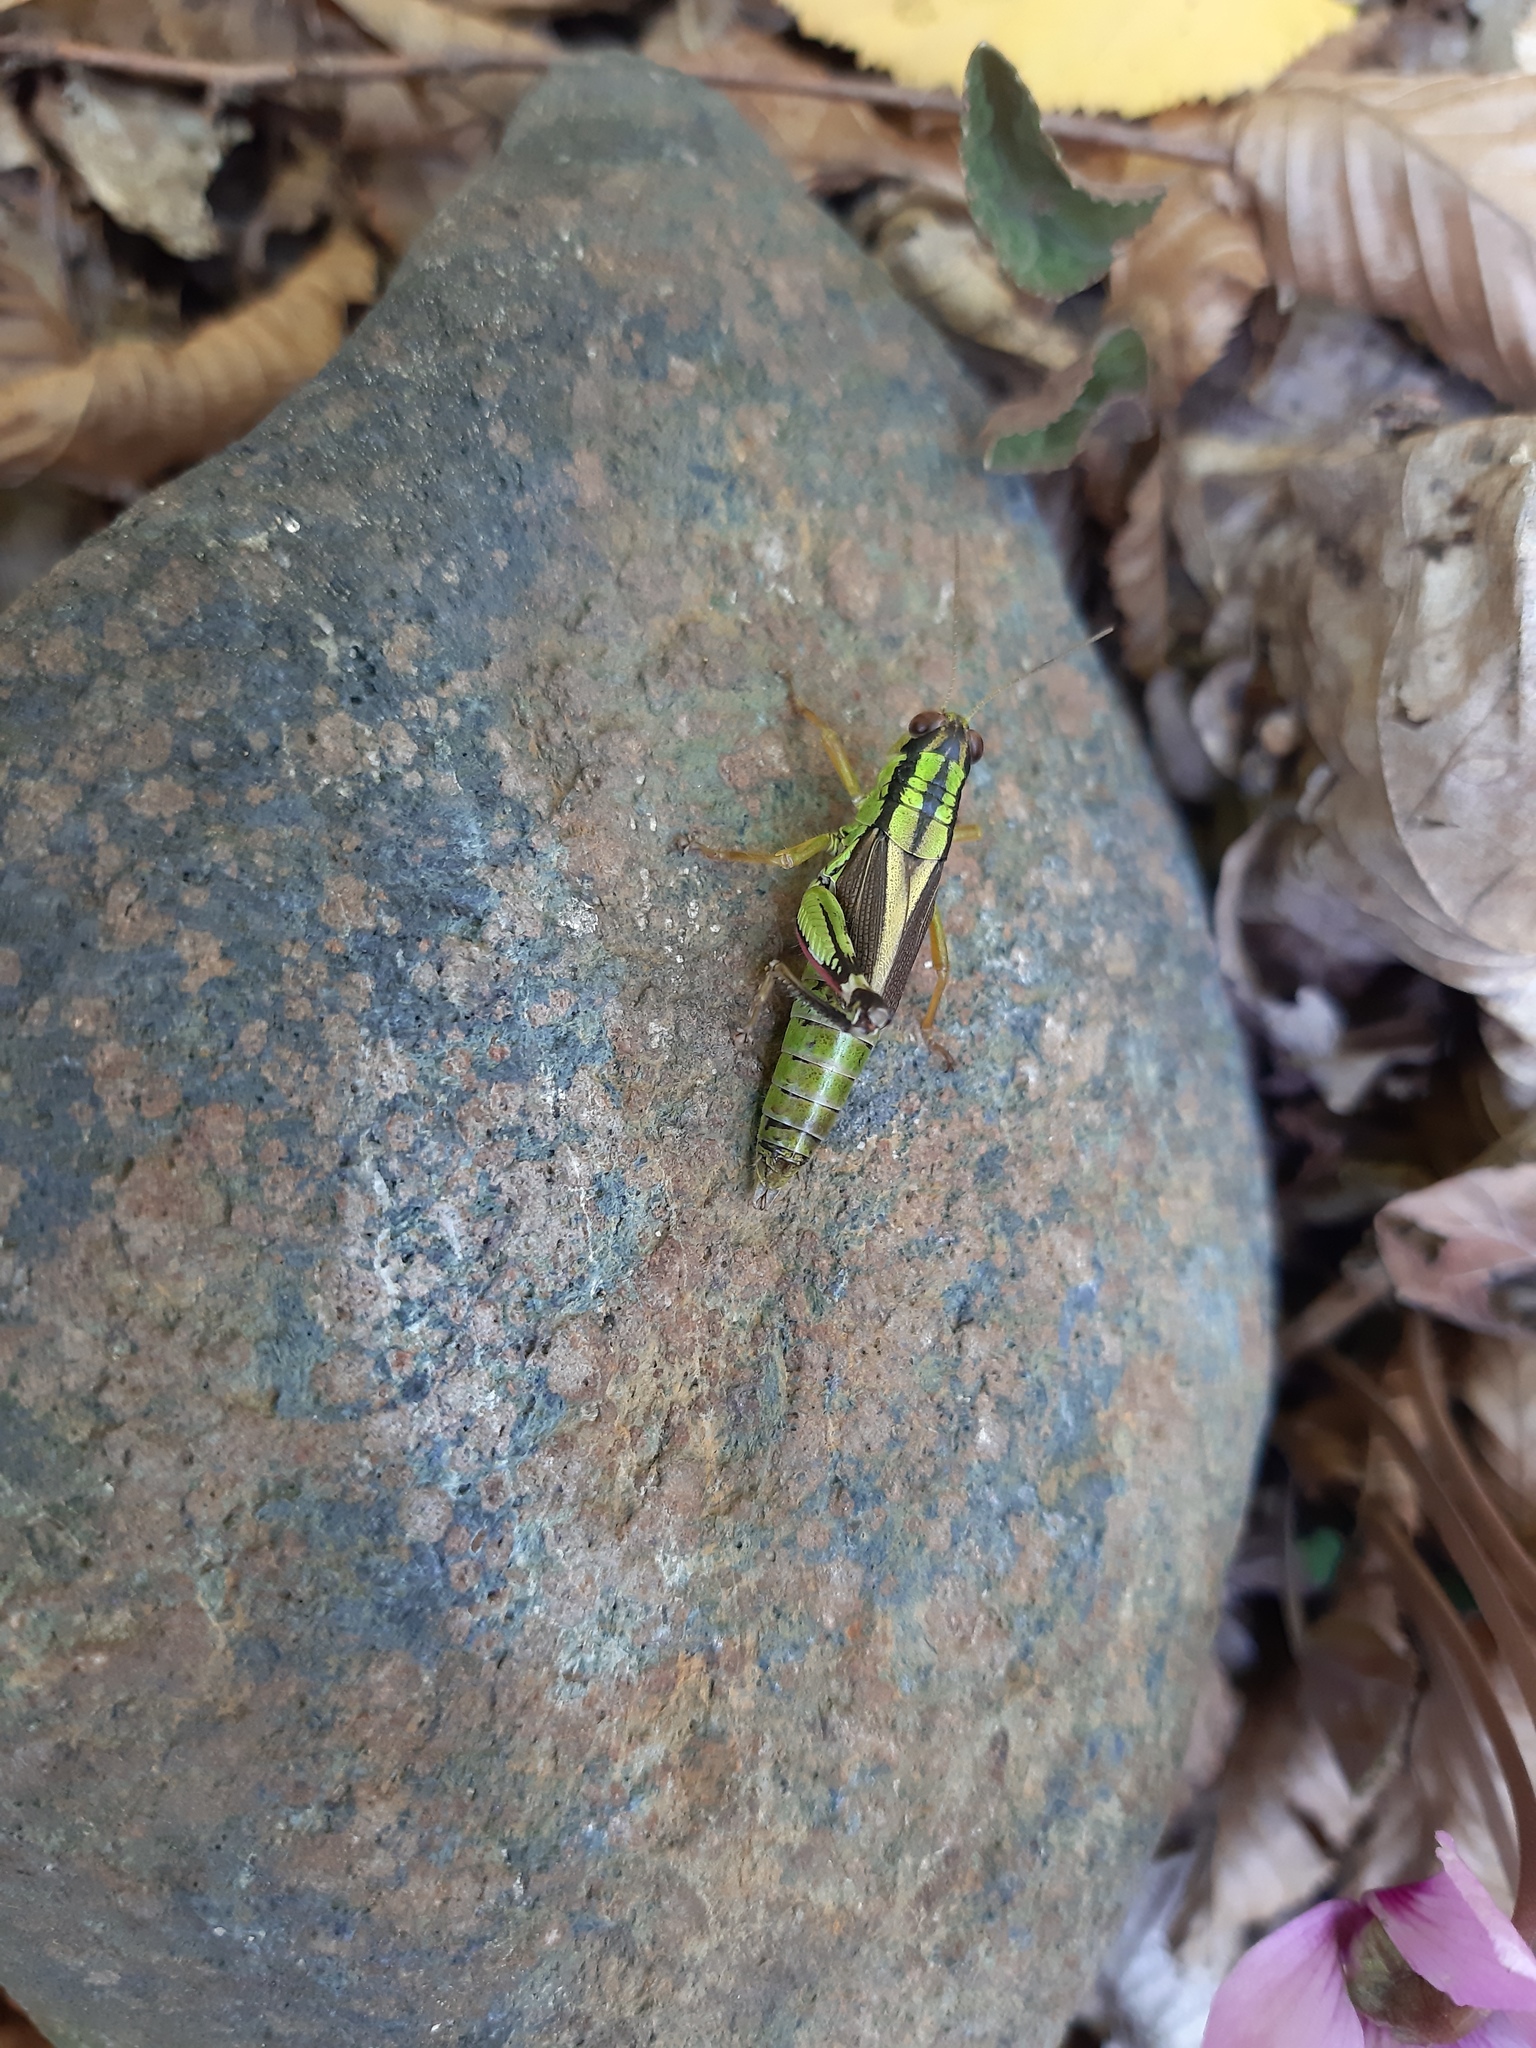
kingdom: Animalia
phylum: Arthropoda
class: Insecta
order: Orthoptera
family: Acrididae
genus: Nadigella
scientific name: Nadigella formosanta
